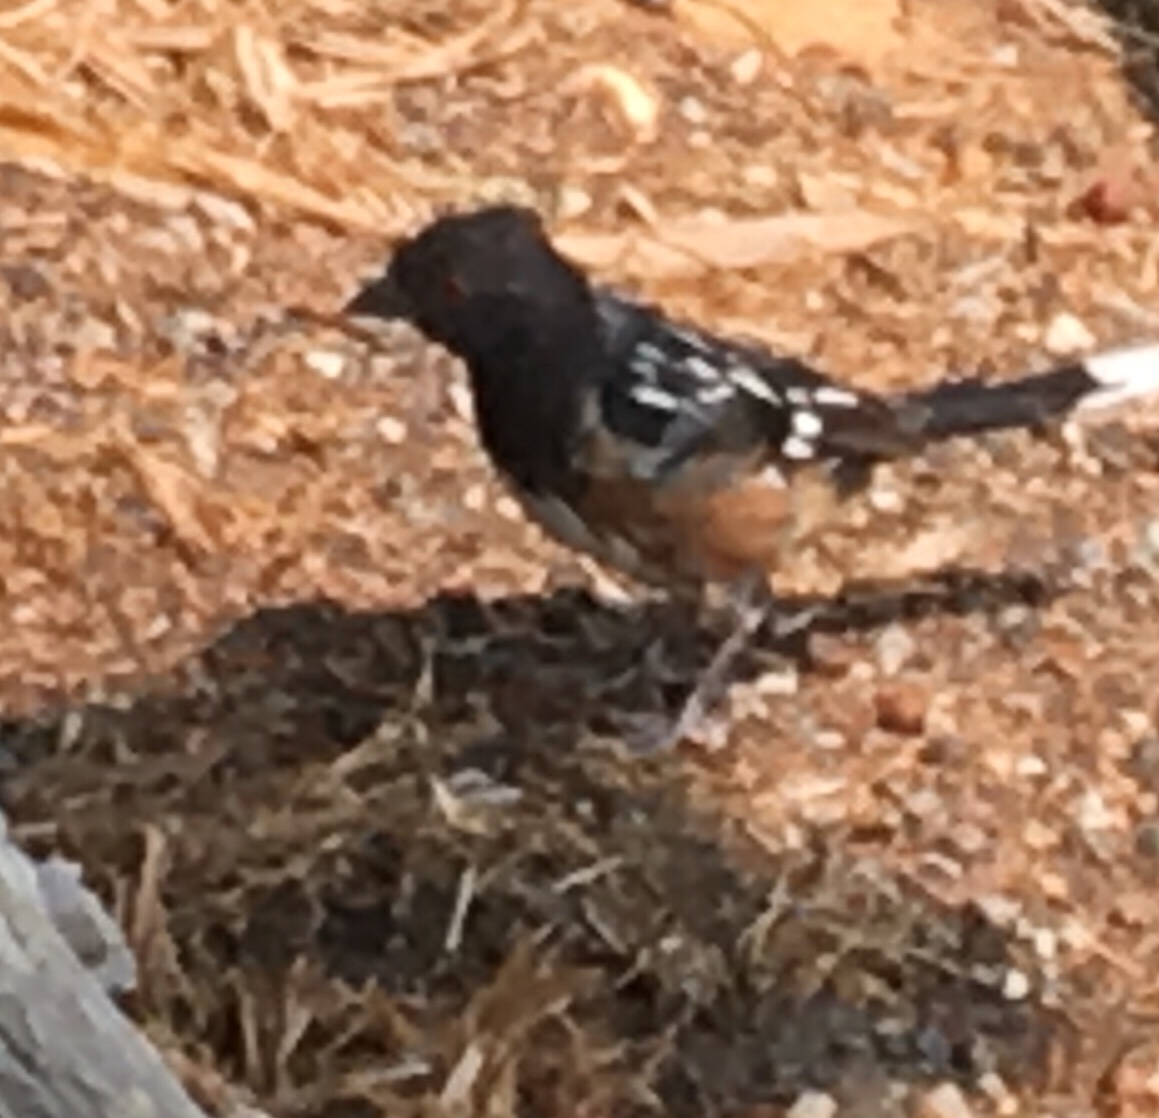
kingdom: Animalia
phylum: Chordata
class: Aves
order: Passeriformes
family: Passerellidae
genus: Pipilo
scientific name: Pipilo maculatus
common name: Spotted towhee
